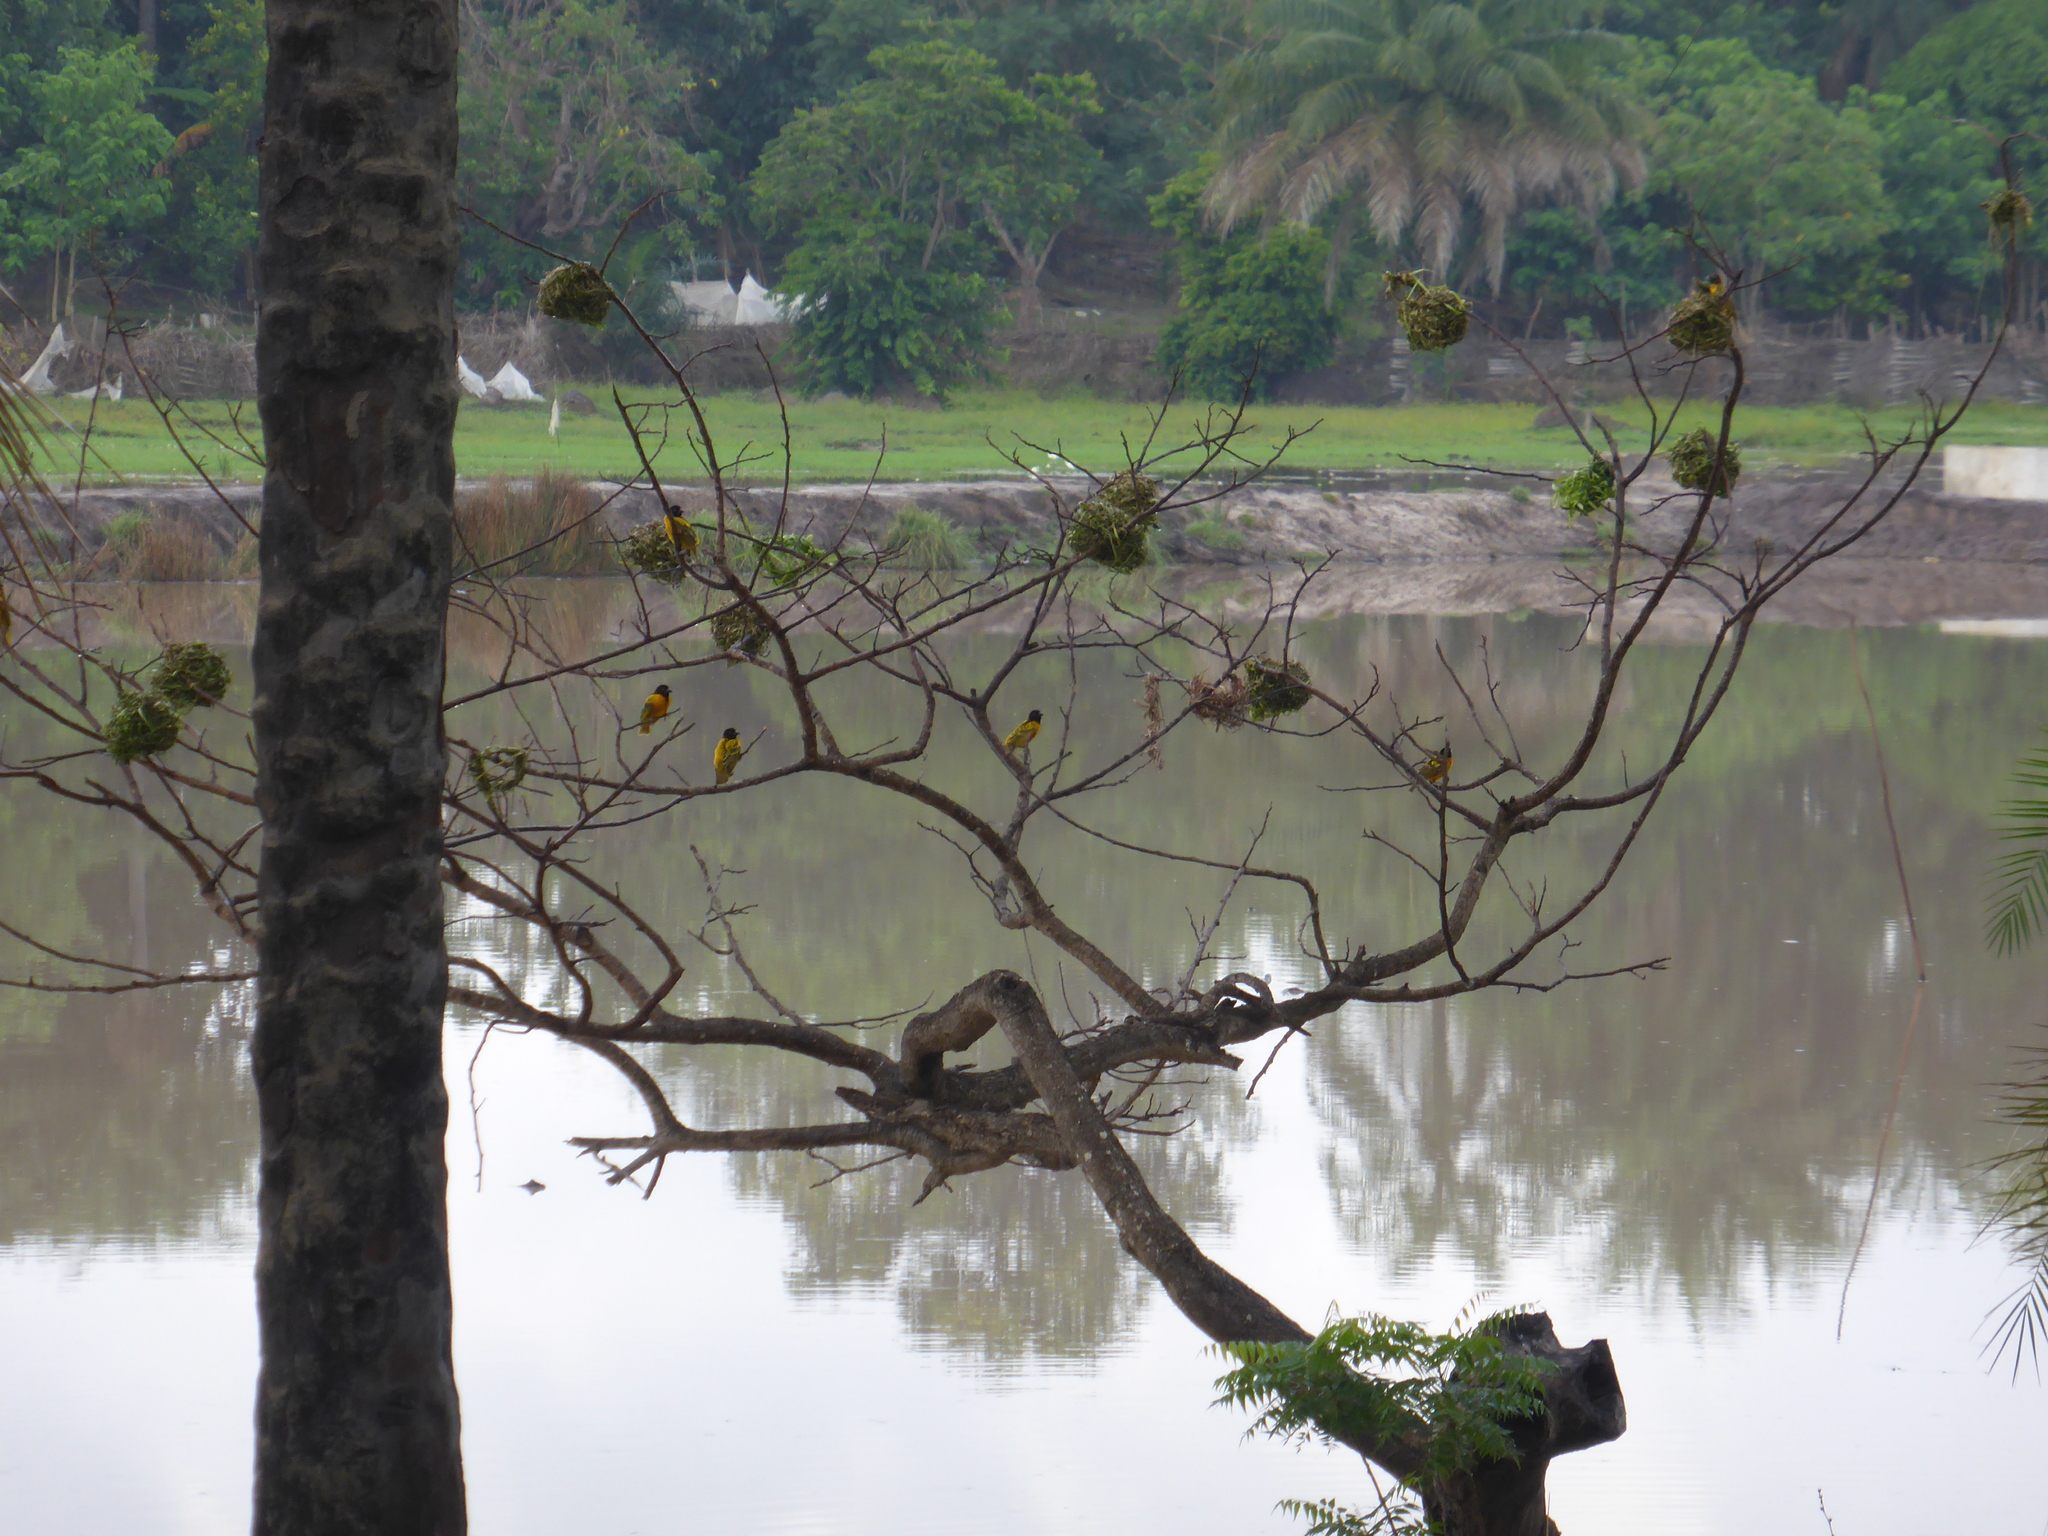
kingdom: Animalia
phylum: Chordata
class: Aves
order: Passeriformes
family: Ploceidae
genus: Ploceus
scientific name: Ploceus cucullatus
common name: Village weaver
